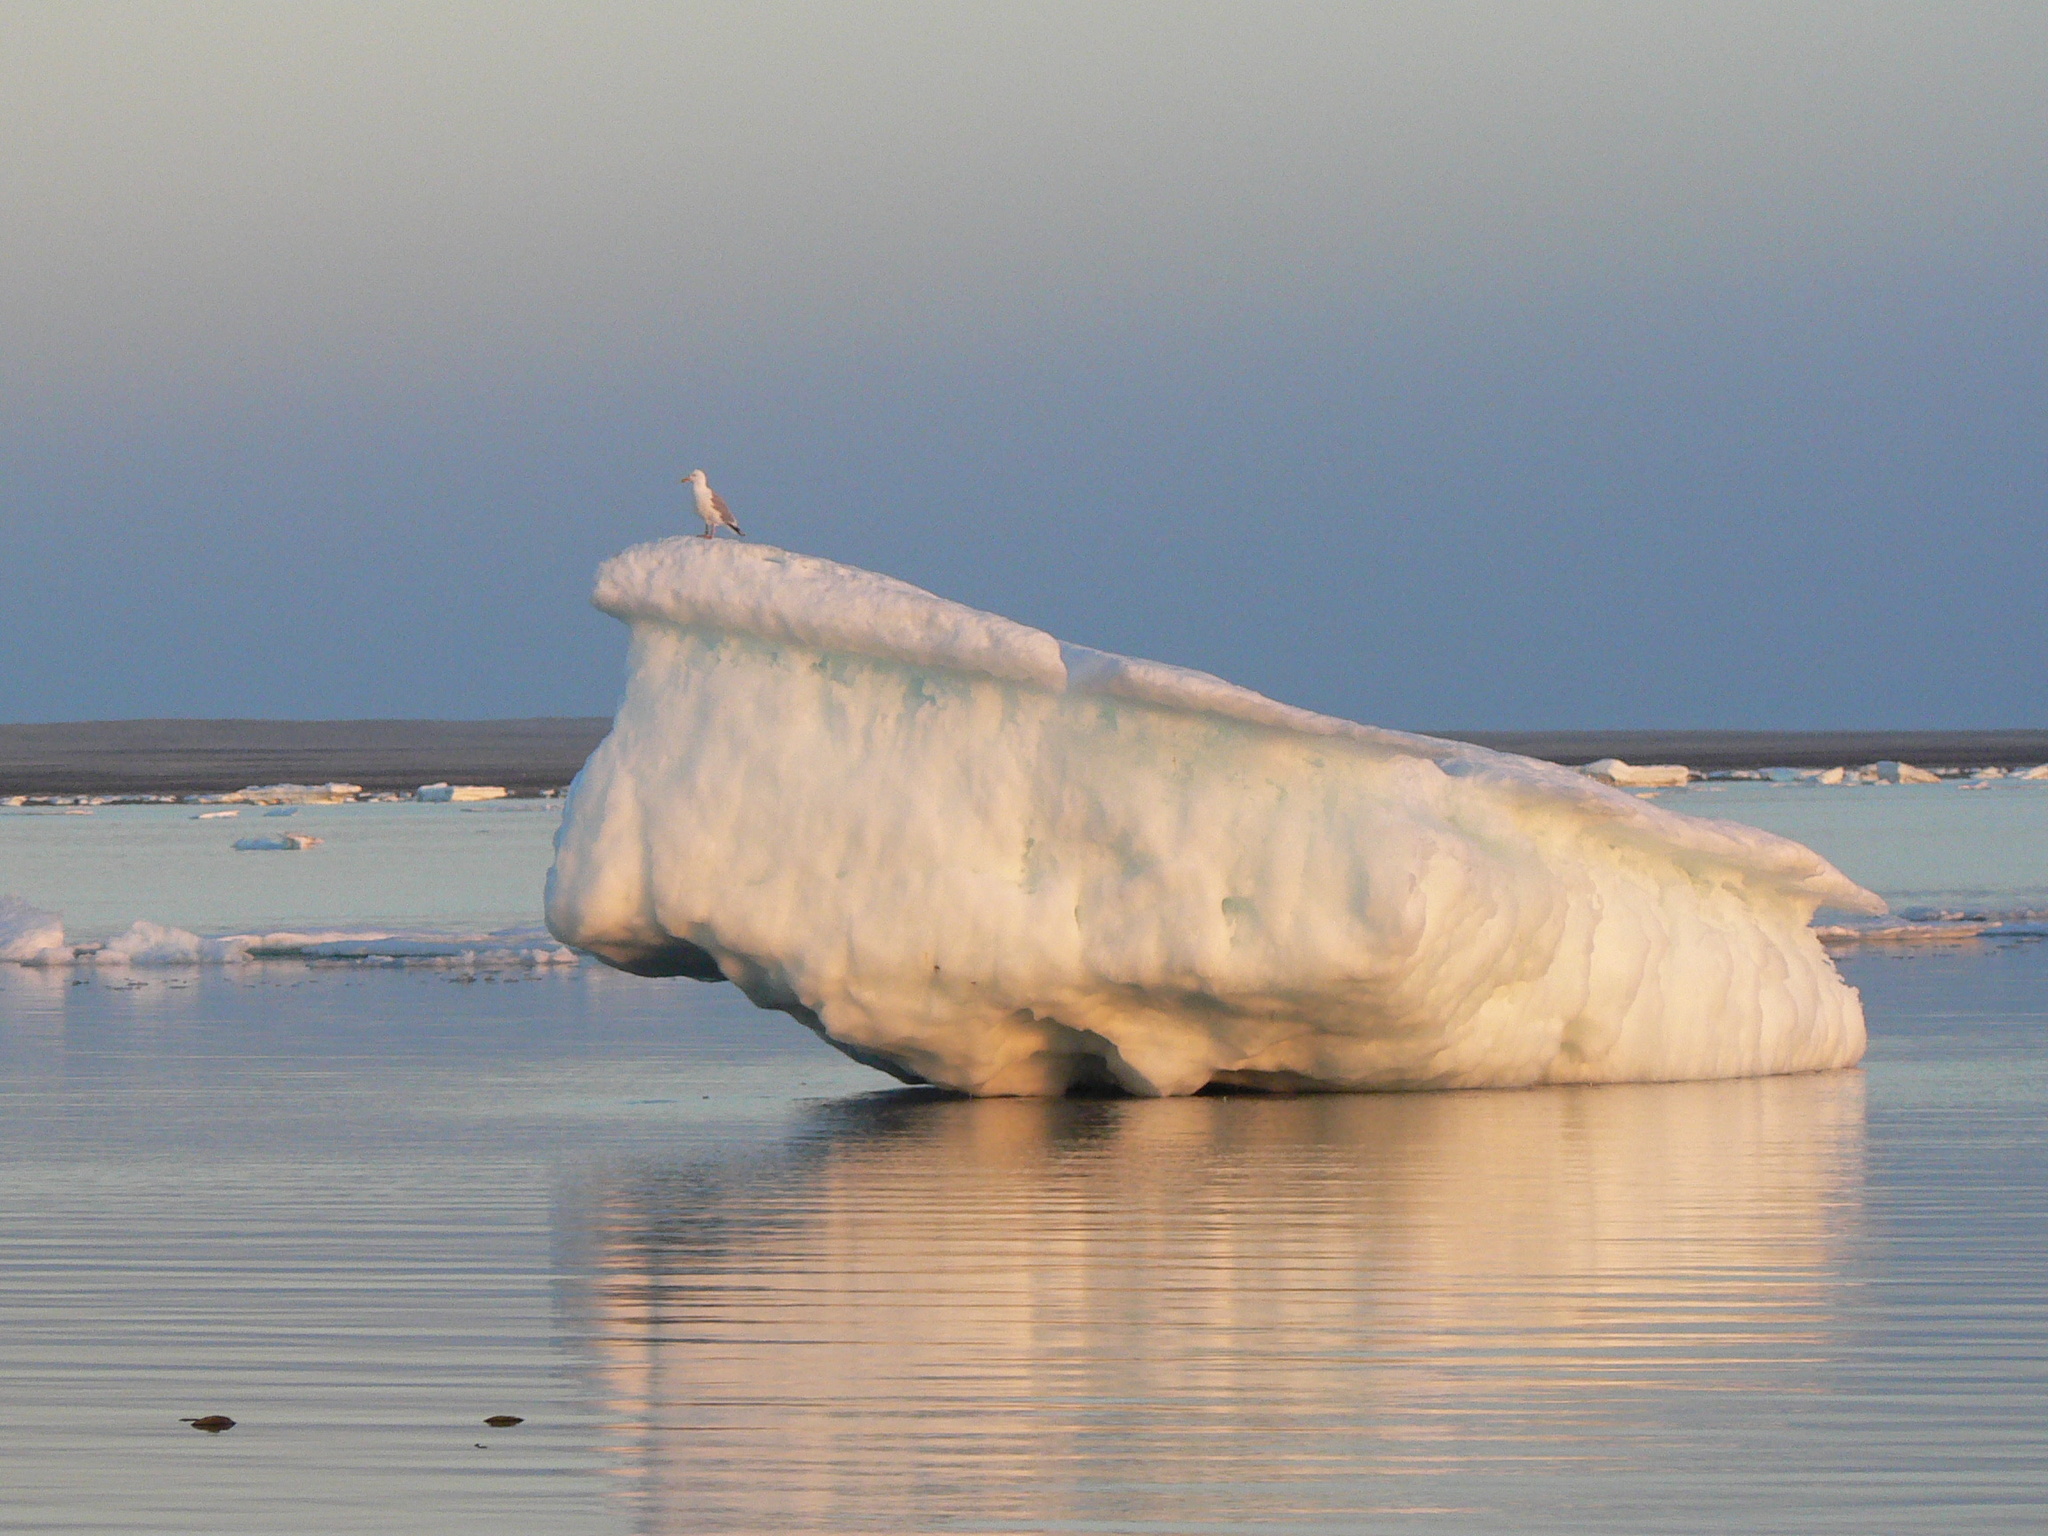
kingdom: Animalia
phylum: Chordata
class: Aves
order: Charadriiformes
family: Laridae
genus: Larus
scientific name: Larus argentatus
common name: Herring gull
